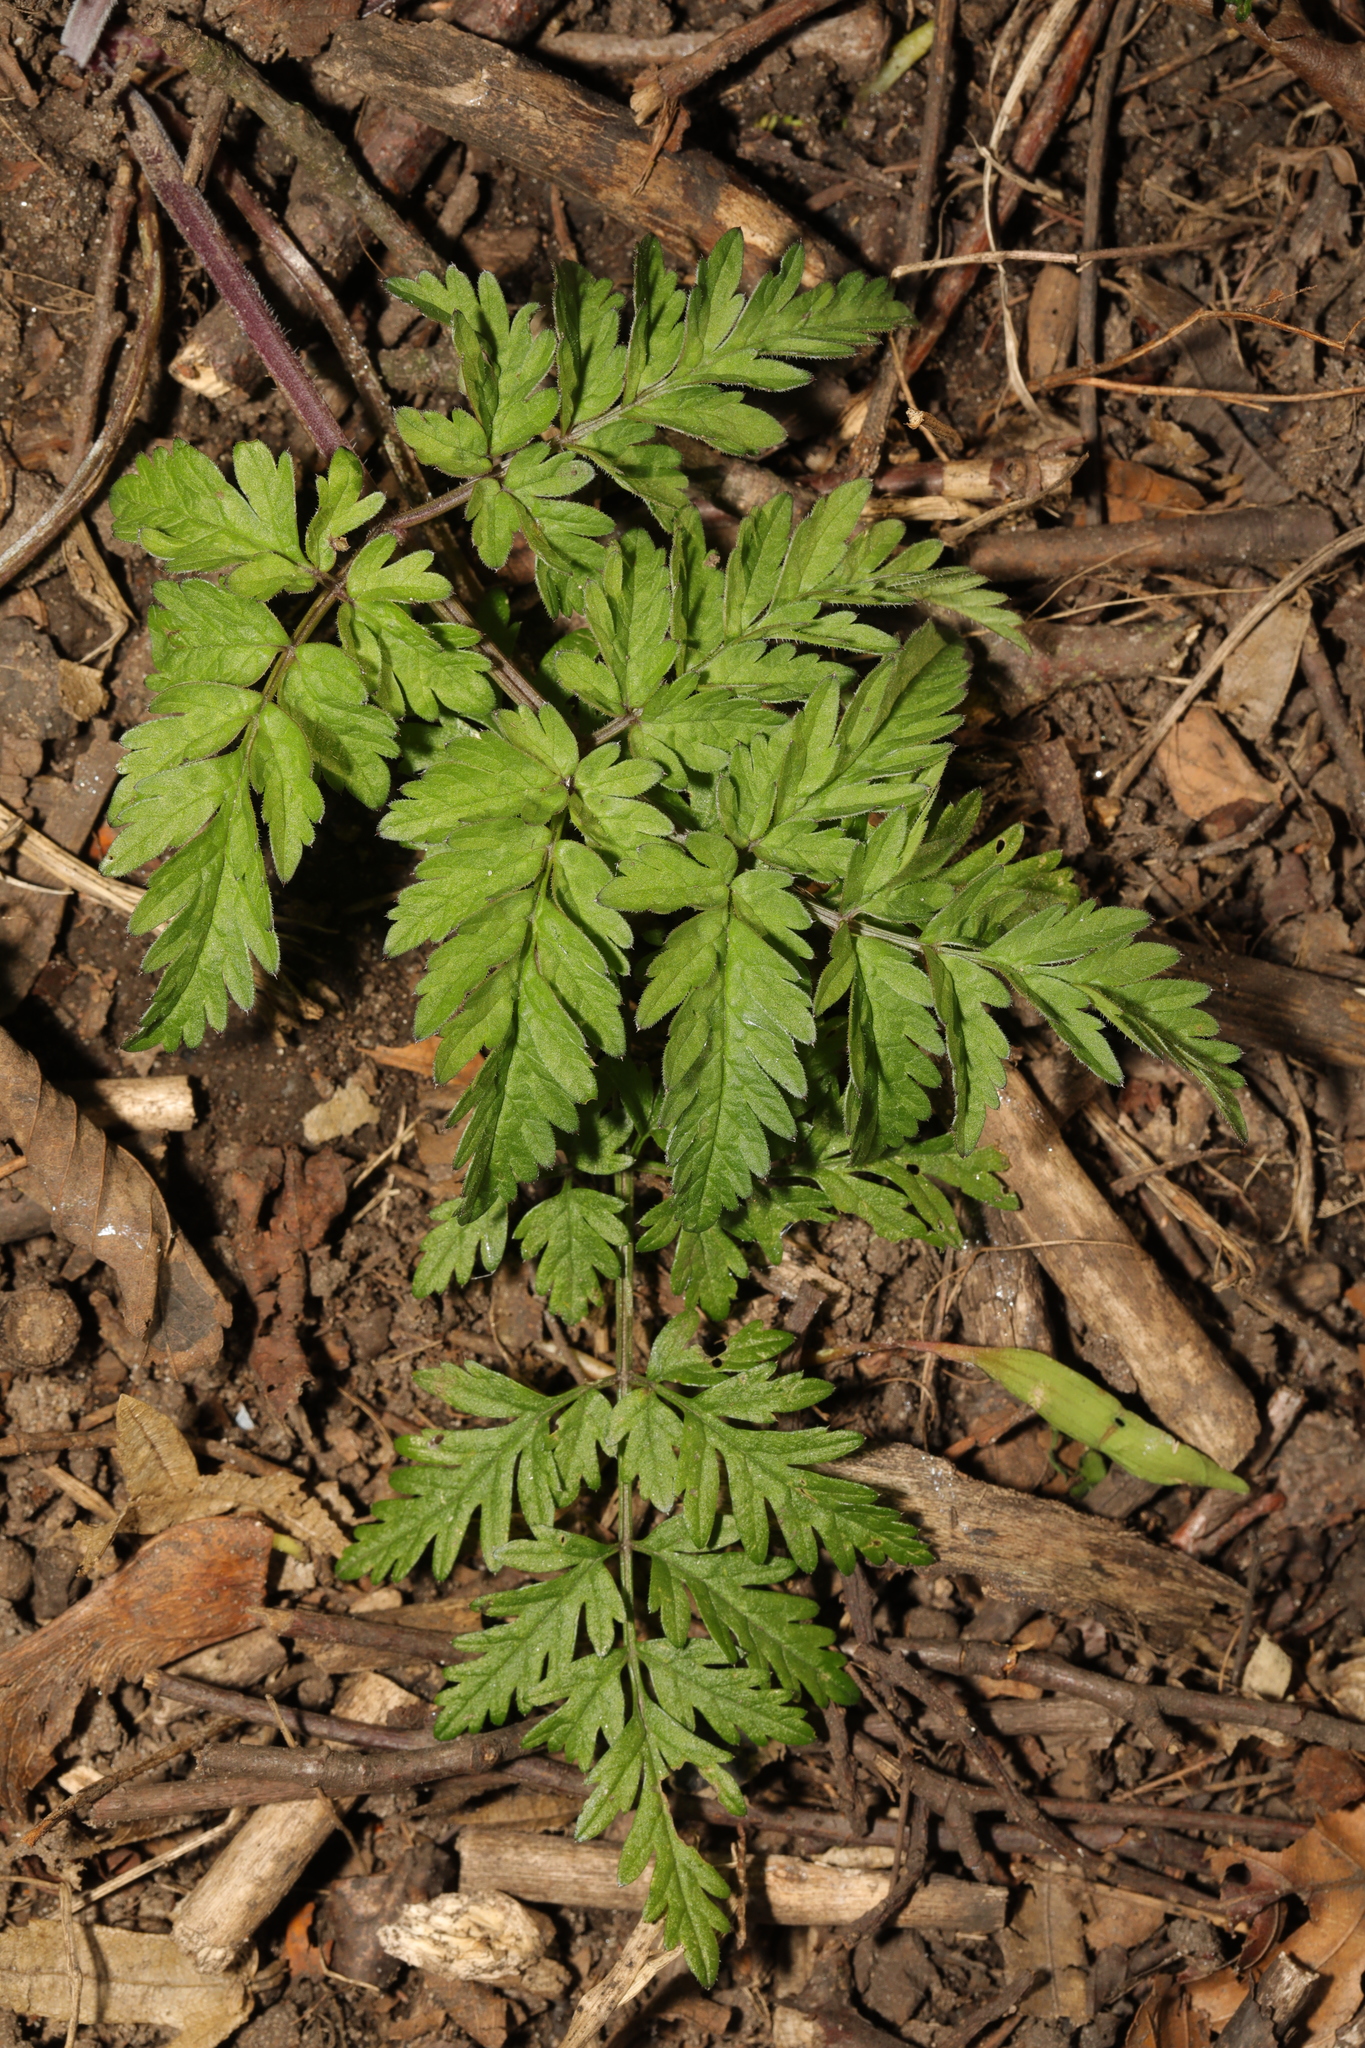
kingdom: Plantae
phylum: Tracheophyta
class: Magnoliopsida
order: Apiales
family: Apiaceae
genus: Anthriscus
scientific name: Anthriscus sylvestris
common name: Cow parsley
